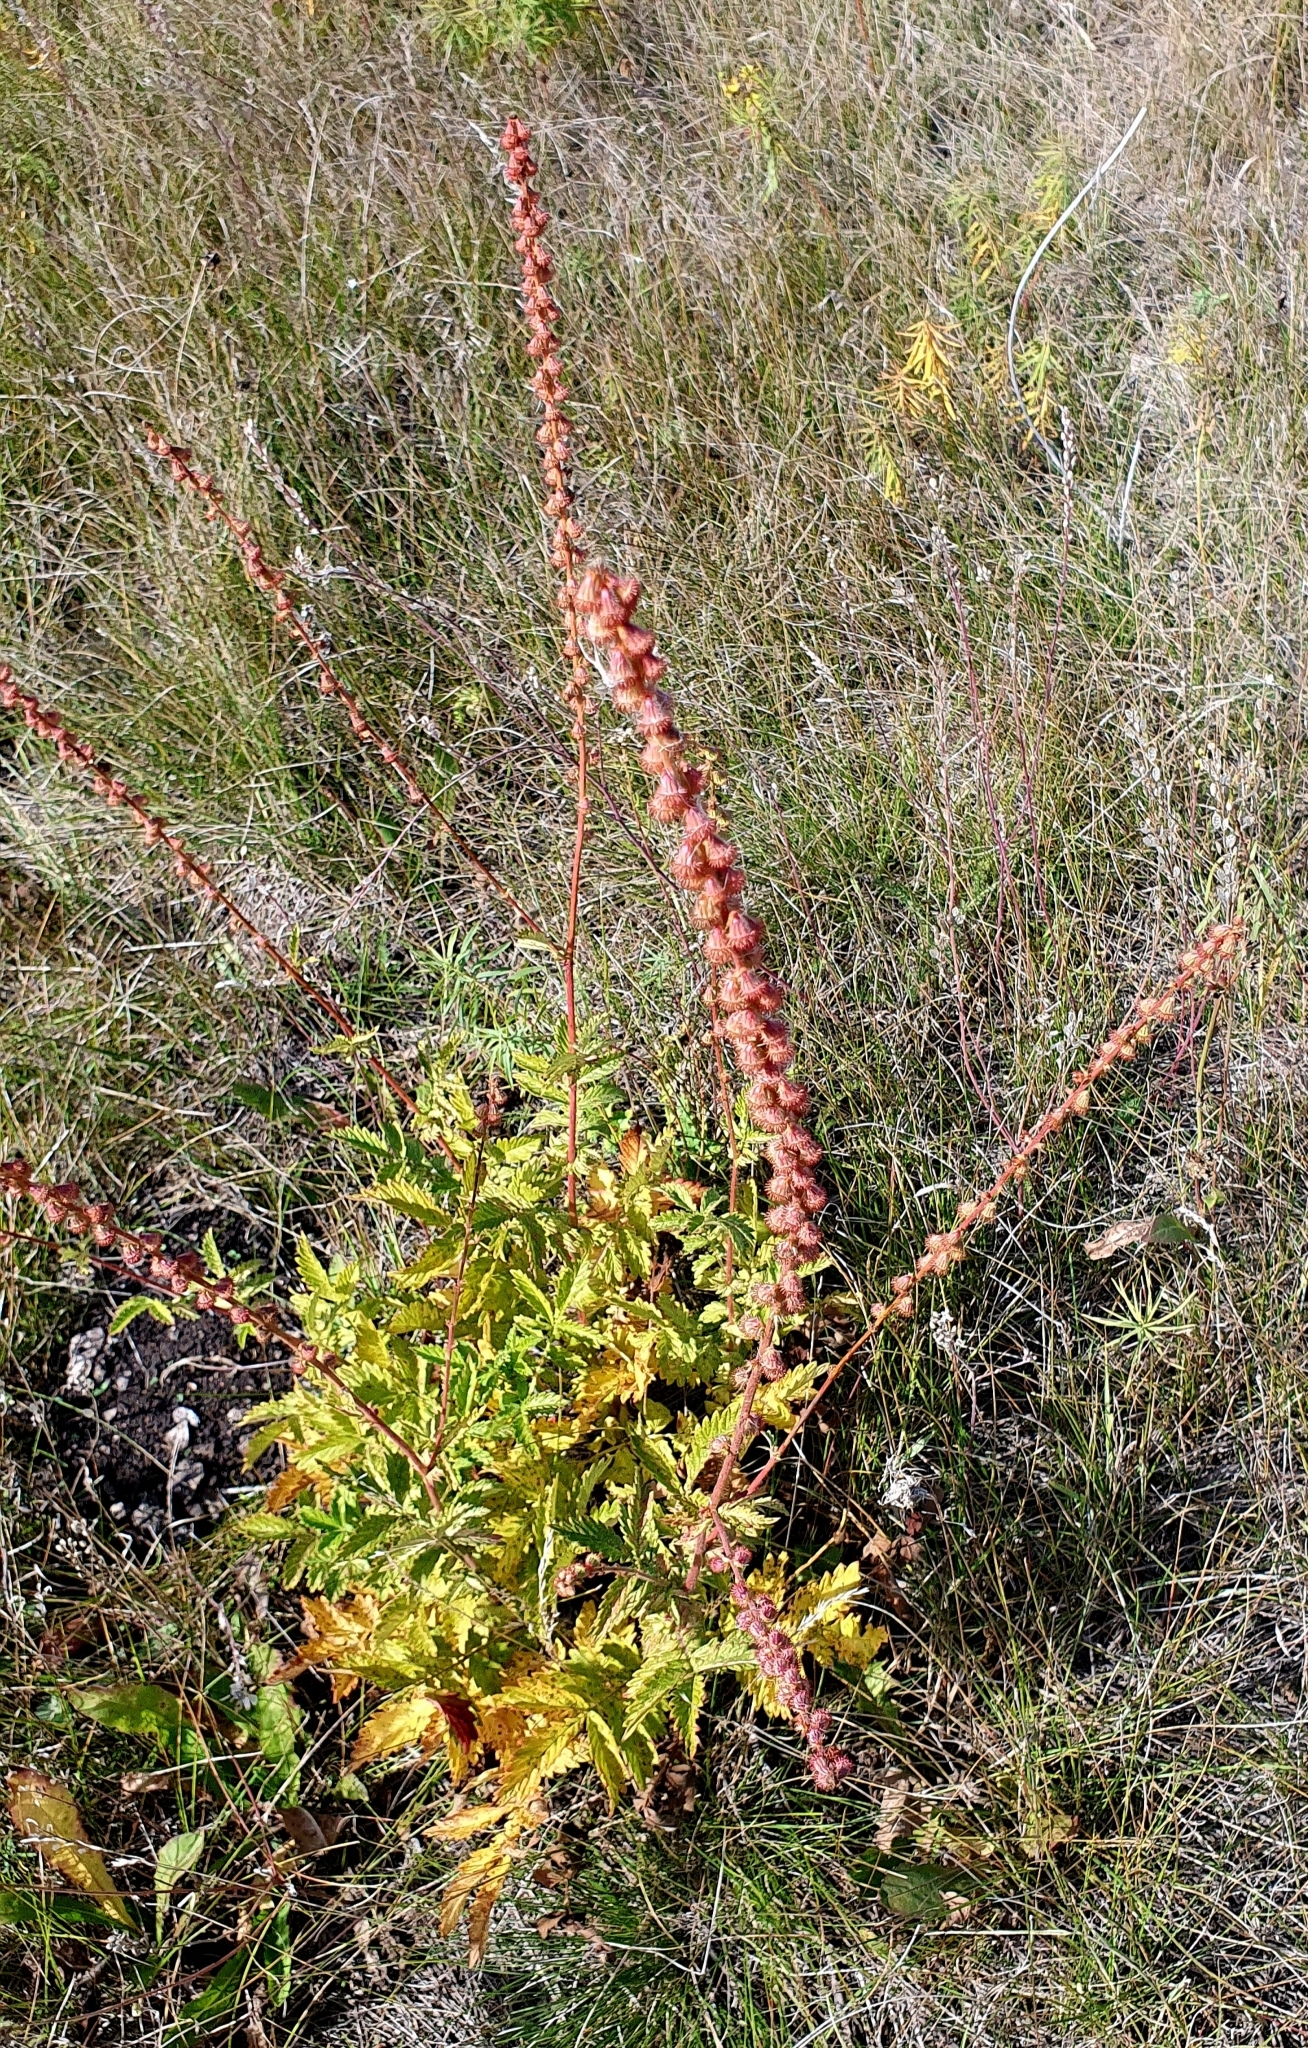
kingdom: Plantae
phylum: Tracheophyta
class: Magnoliopsida
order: Rosales
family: Rosaceae
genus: Agrimonia
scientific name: Agrimonia eupatoria
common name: Agrimony
